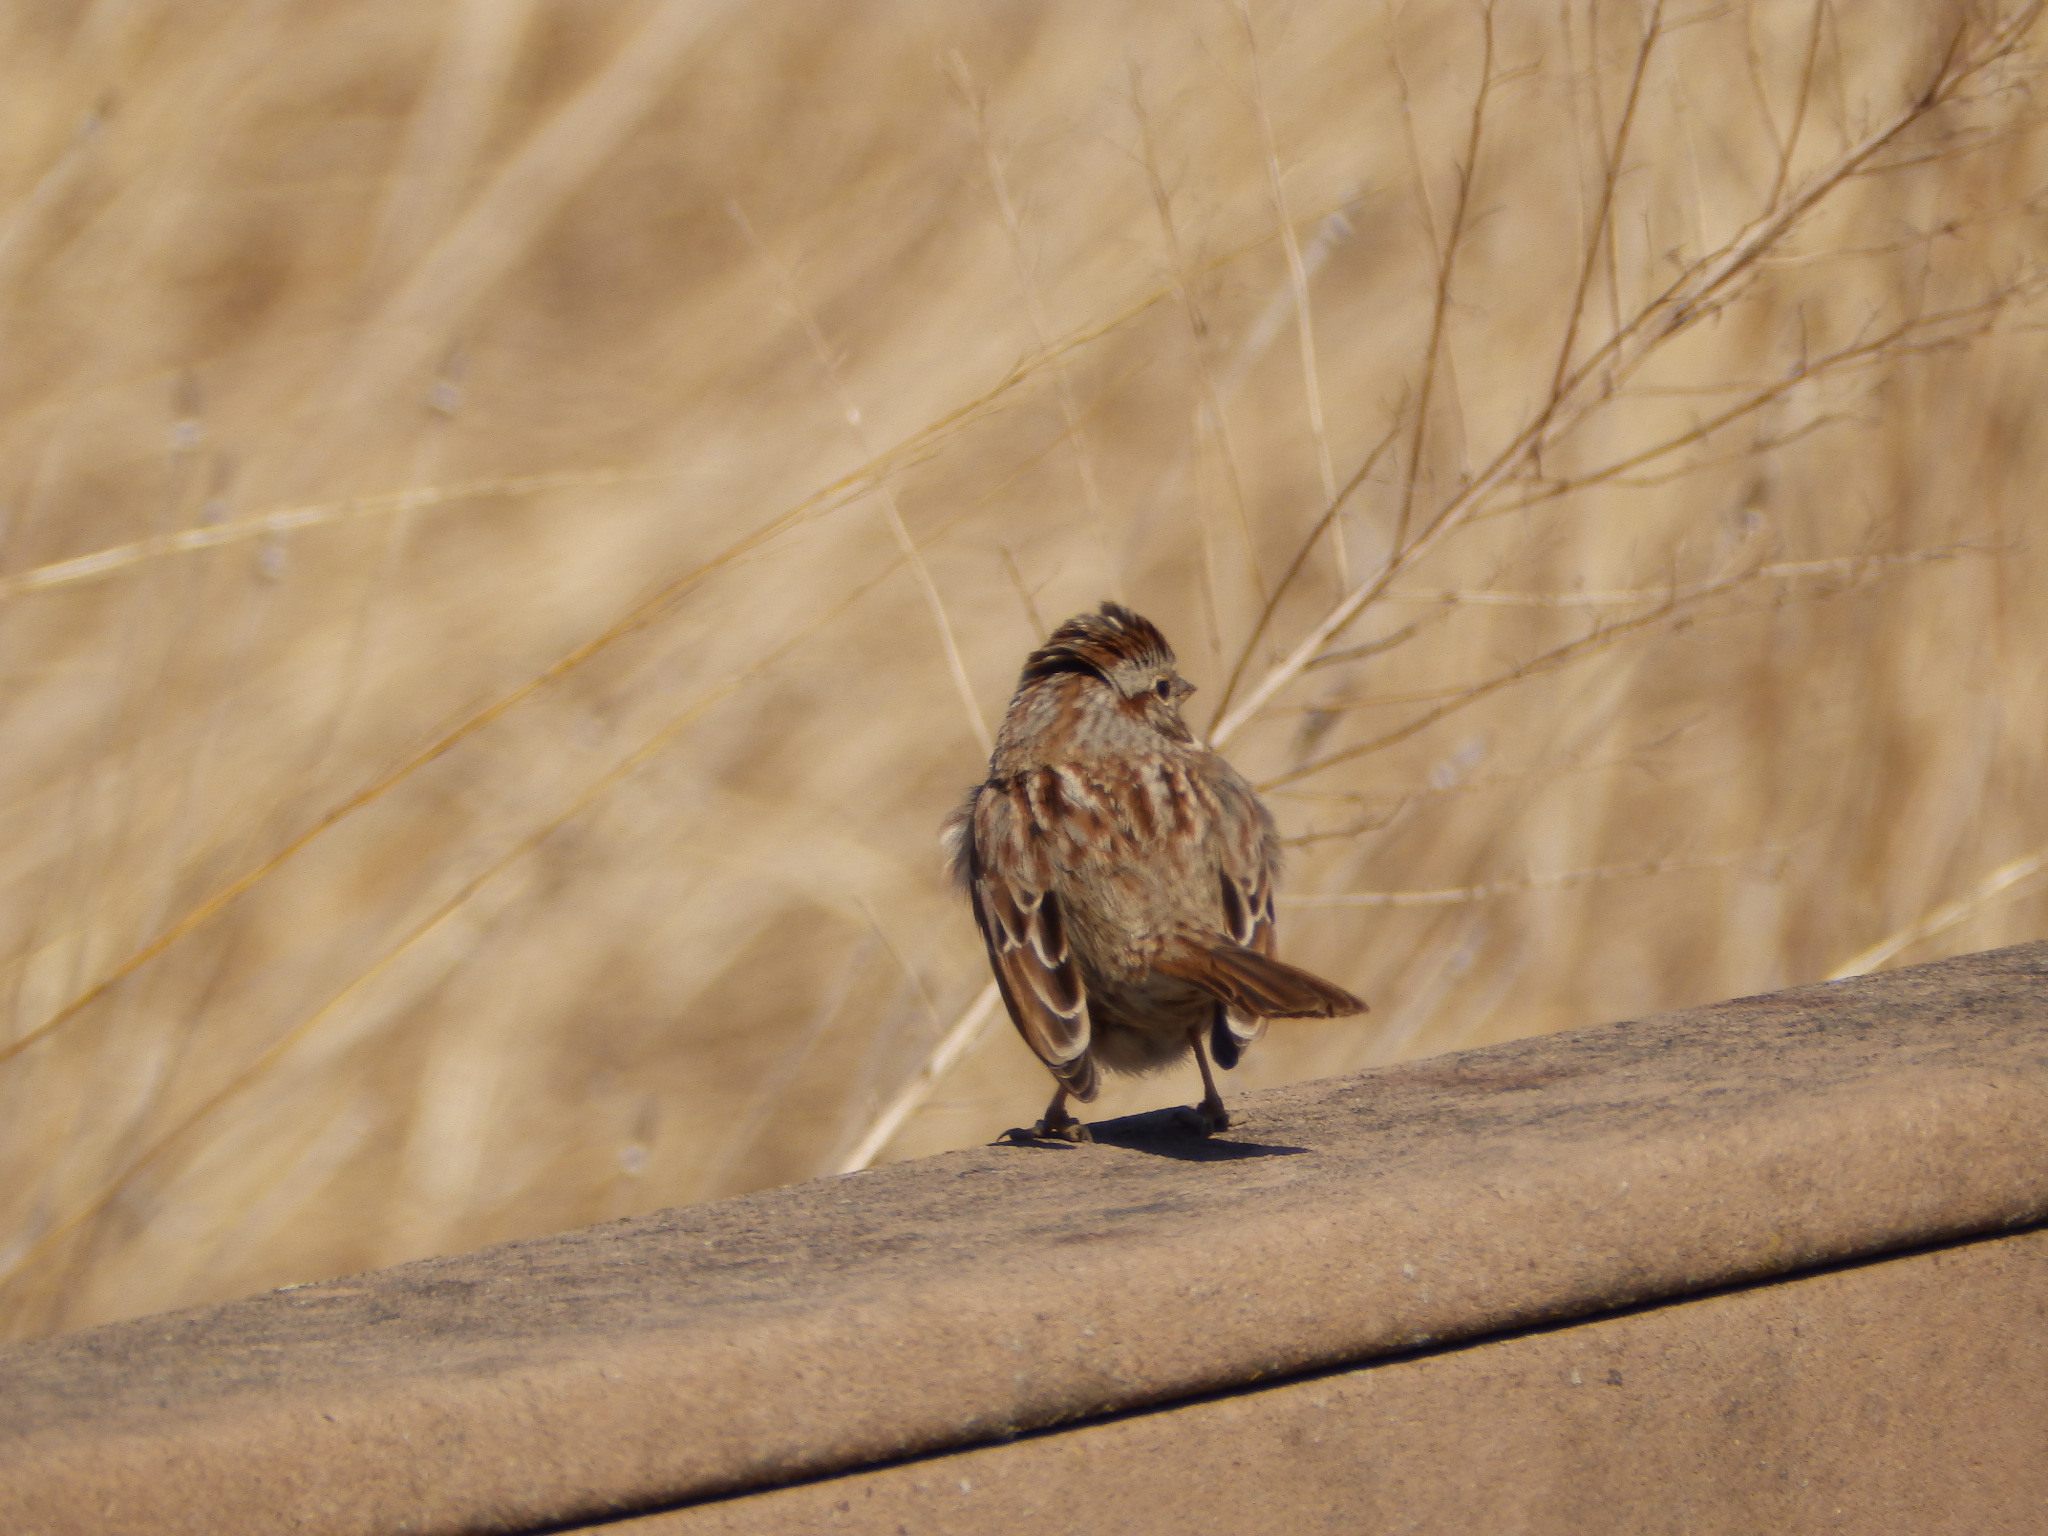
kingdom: Animalia
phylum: Chordata
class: Aves
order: Passeriformes
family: Passerellidae
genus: Melospiza
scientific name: Melospiza melodia
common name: Song sparrow
